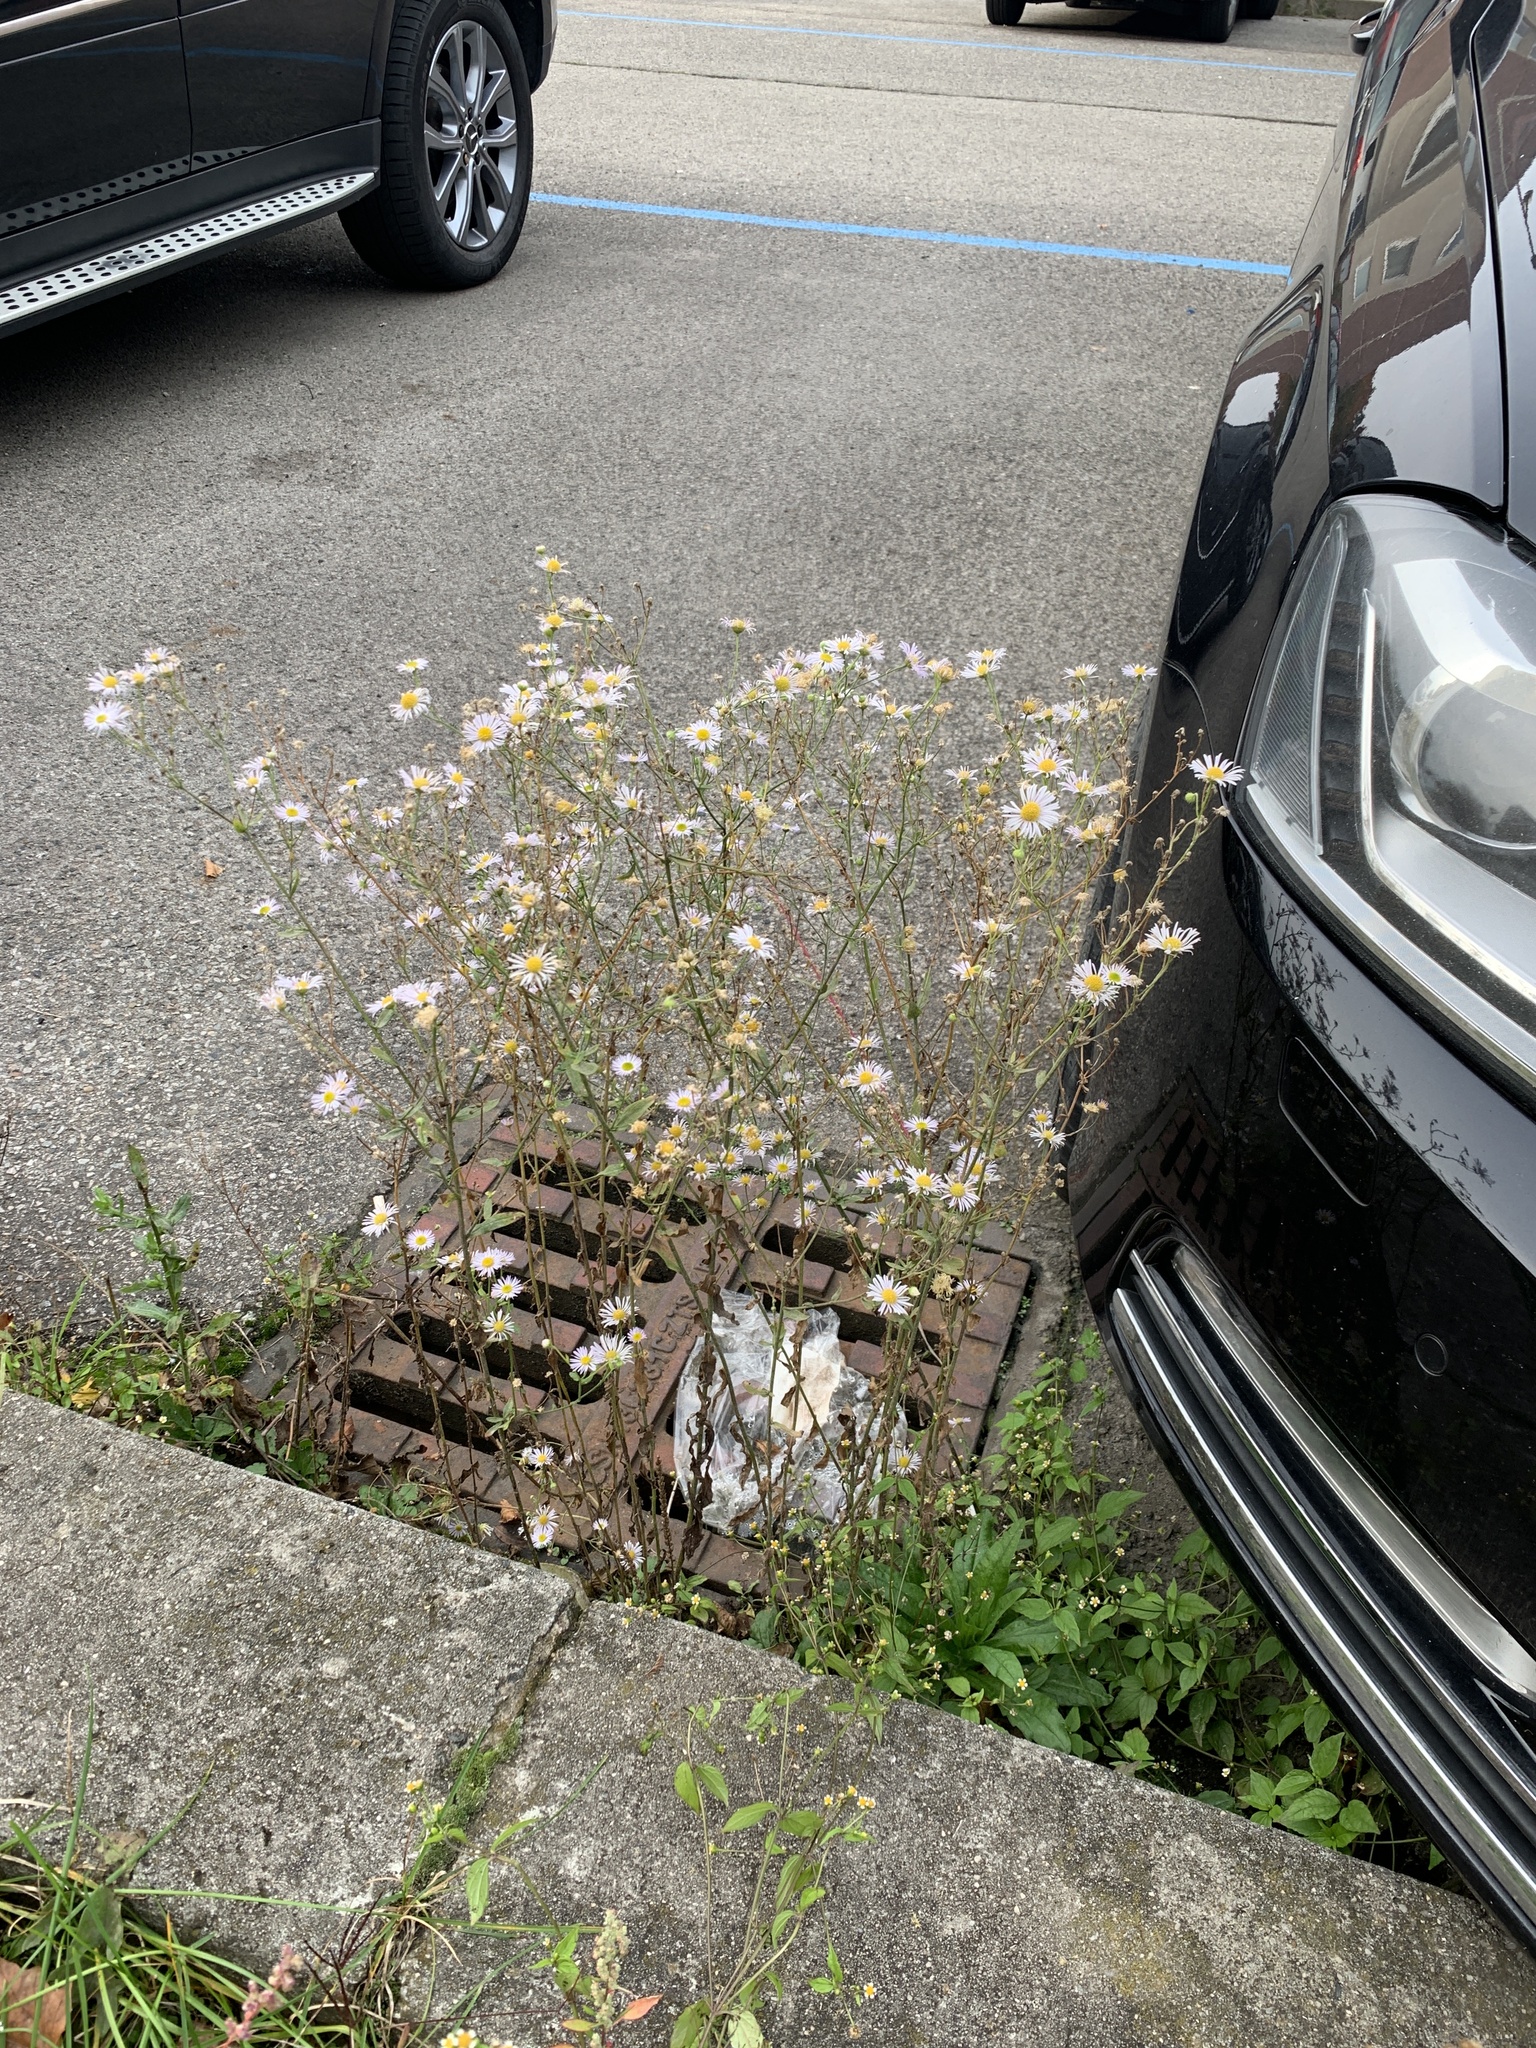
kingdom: Plantae
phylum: Tracheophyta
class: Magnoliopsida
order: Asterales
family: Asteraceae
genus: Erigeron
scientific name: Erigeron annuus
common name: Tall fleabane
